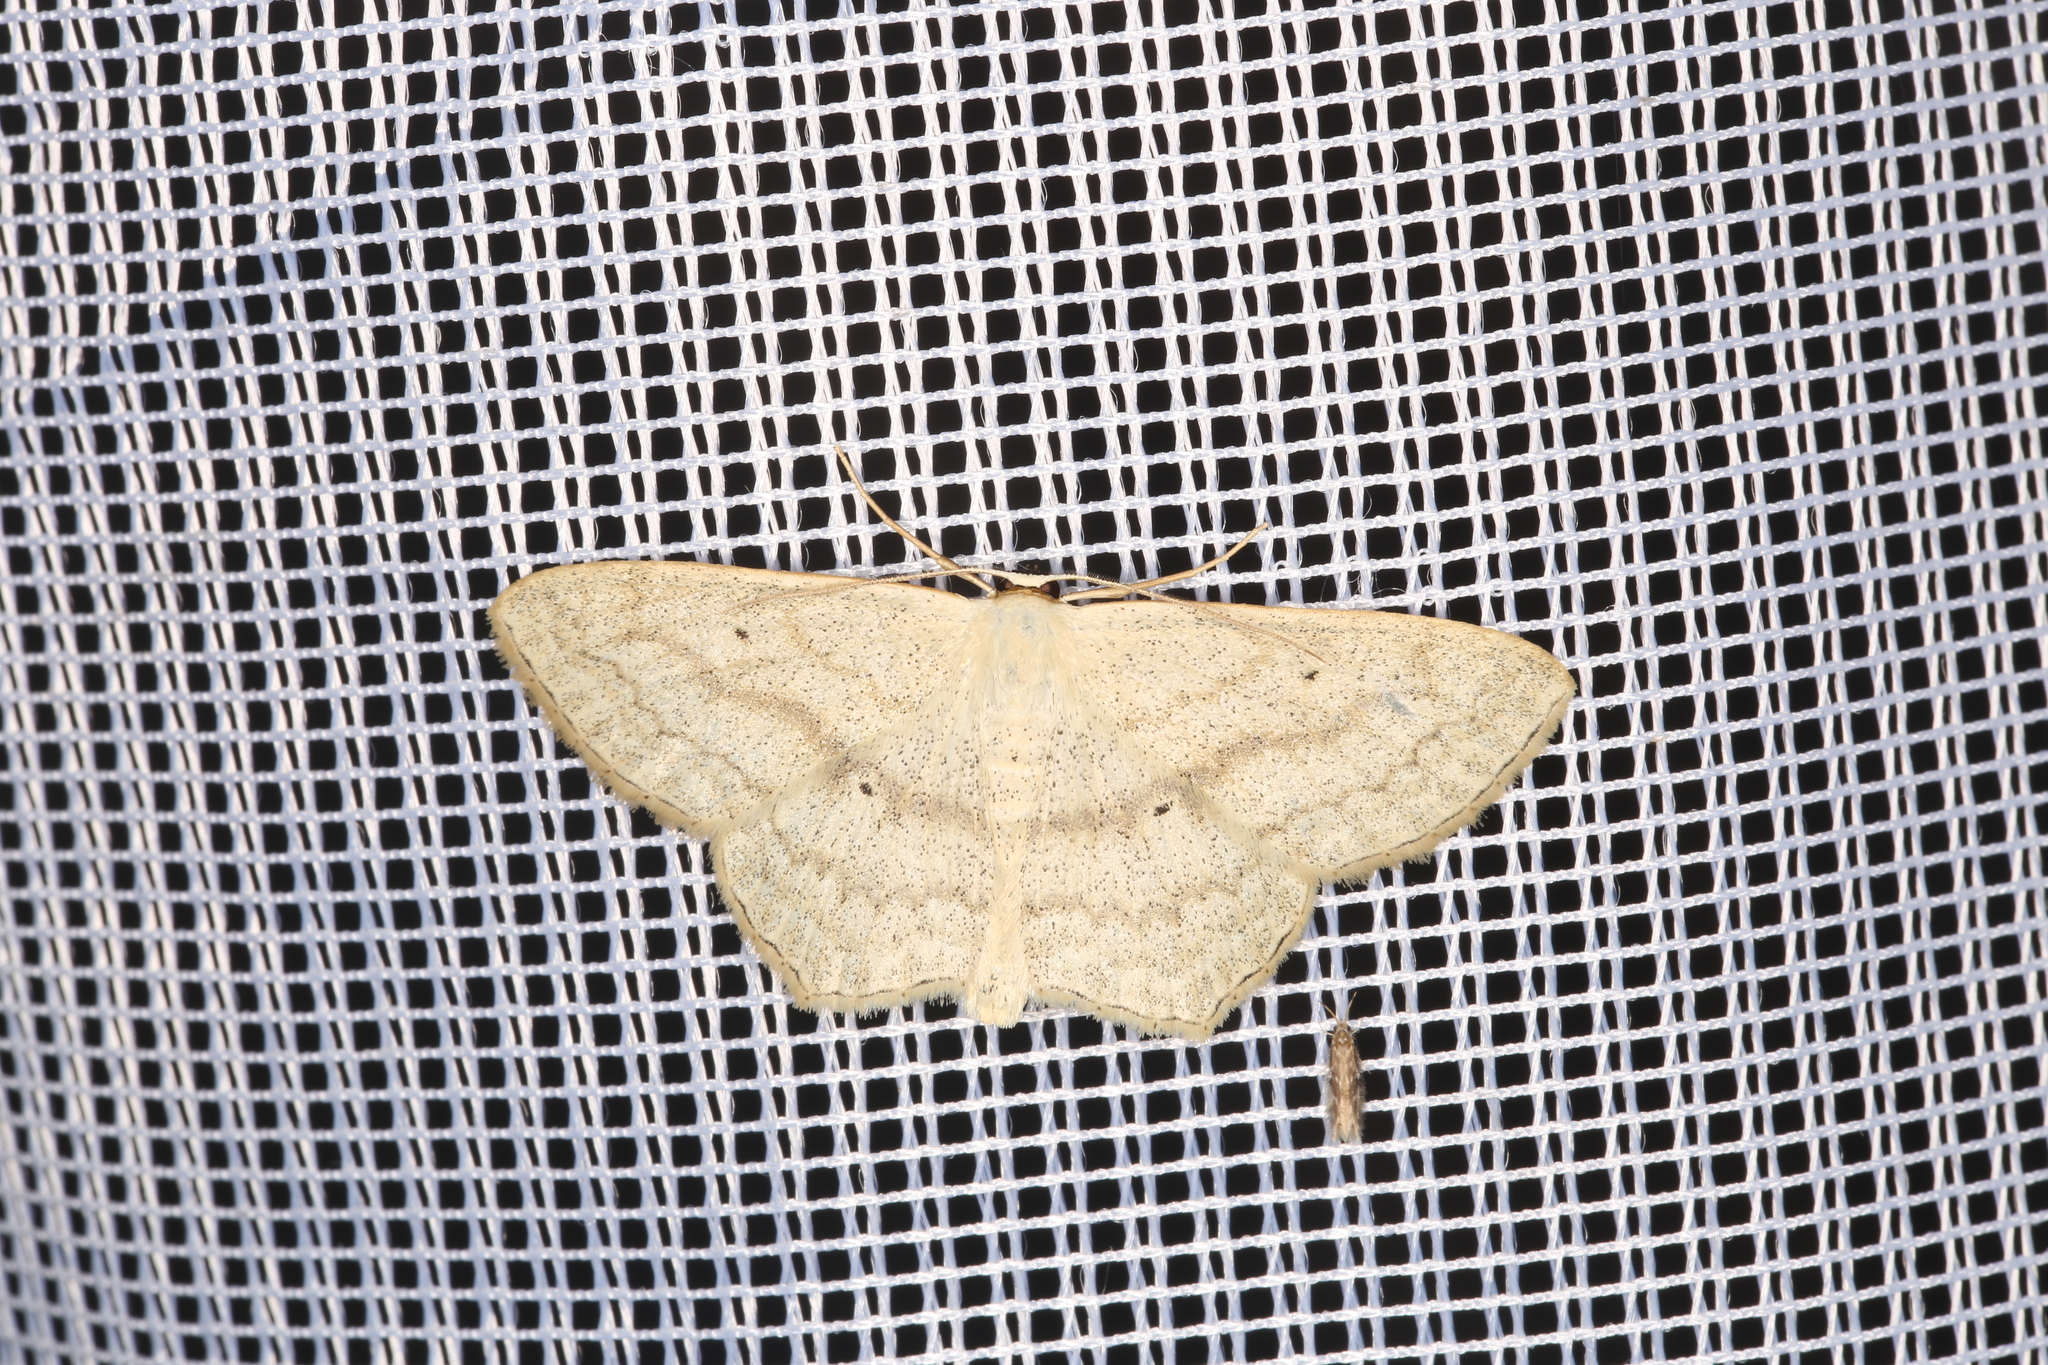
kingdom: Animalia
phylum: Arthropoda
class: Insecta
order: Lepidoptera
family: Geometridae
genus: Scopula
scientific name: Scopula nigropunctata
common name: Sub-angled wave
